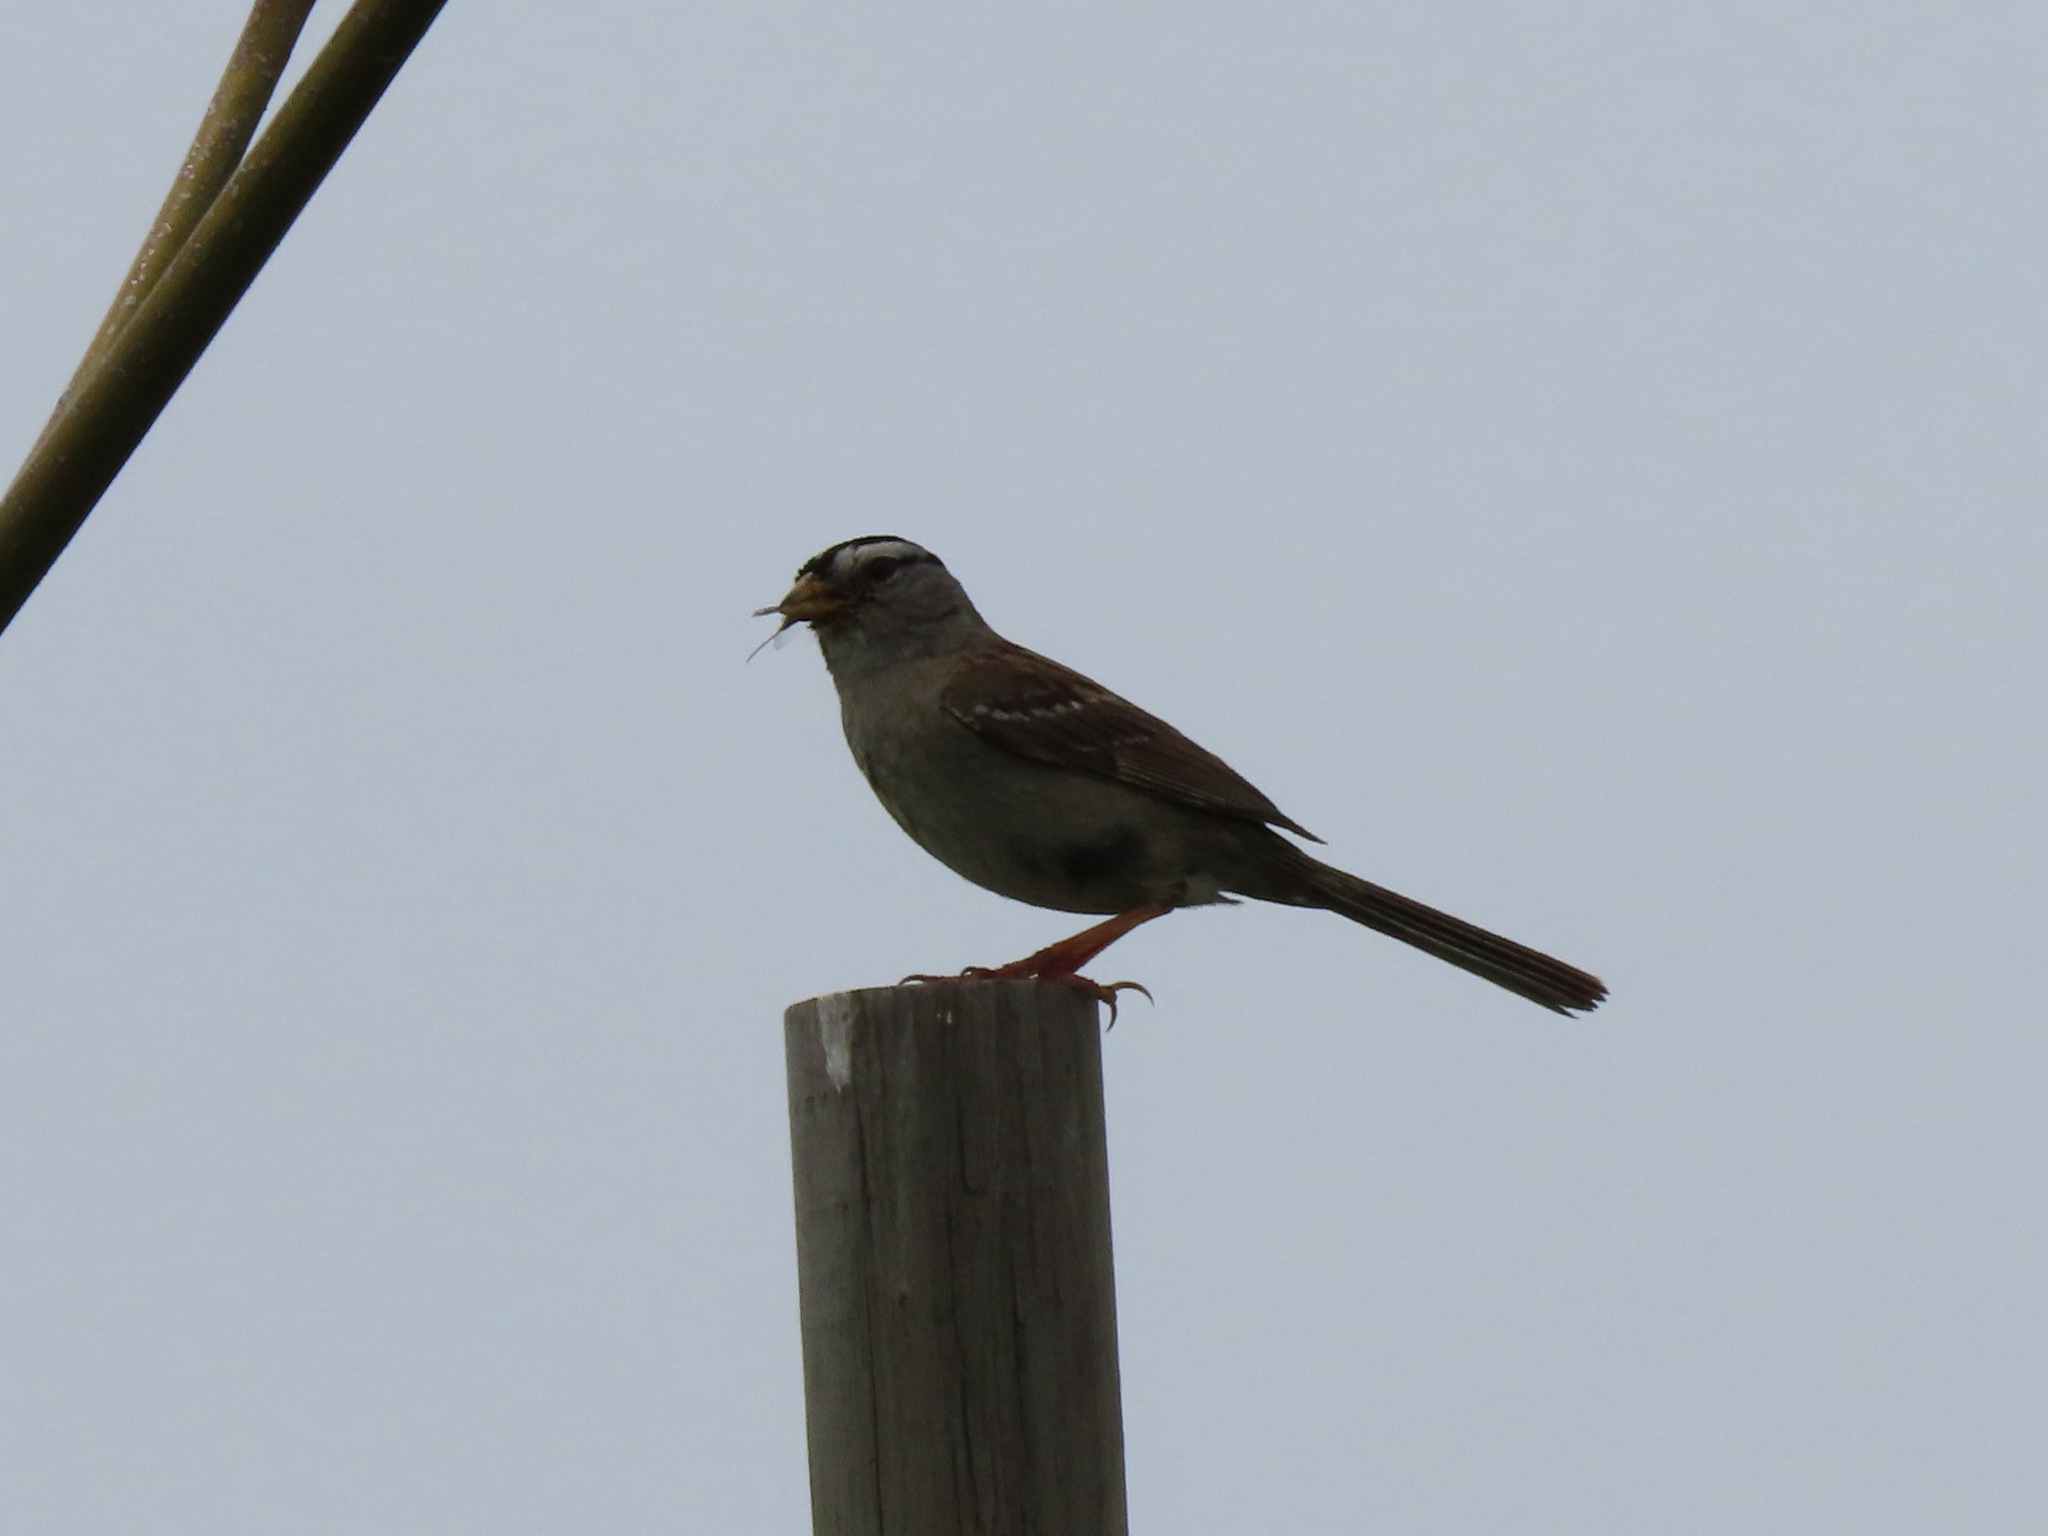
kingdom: Animalia
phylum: Chordata
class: Aves
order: Passeriformes
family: Passerellidae
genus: Zonotrichia
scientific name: Zonotrichia leucophrys
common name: White-crowned sparrow
